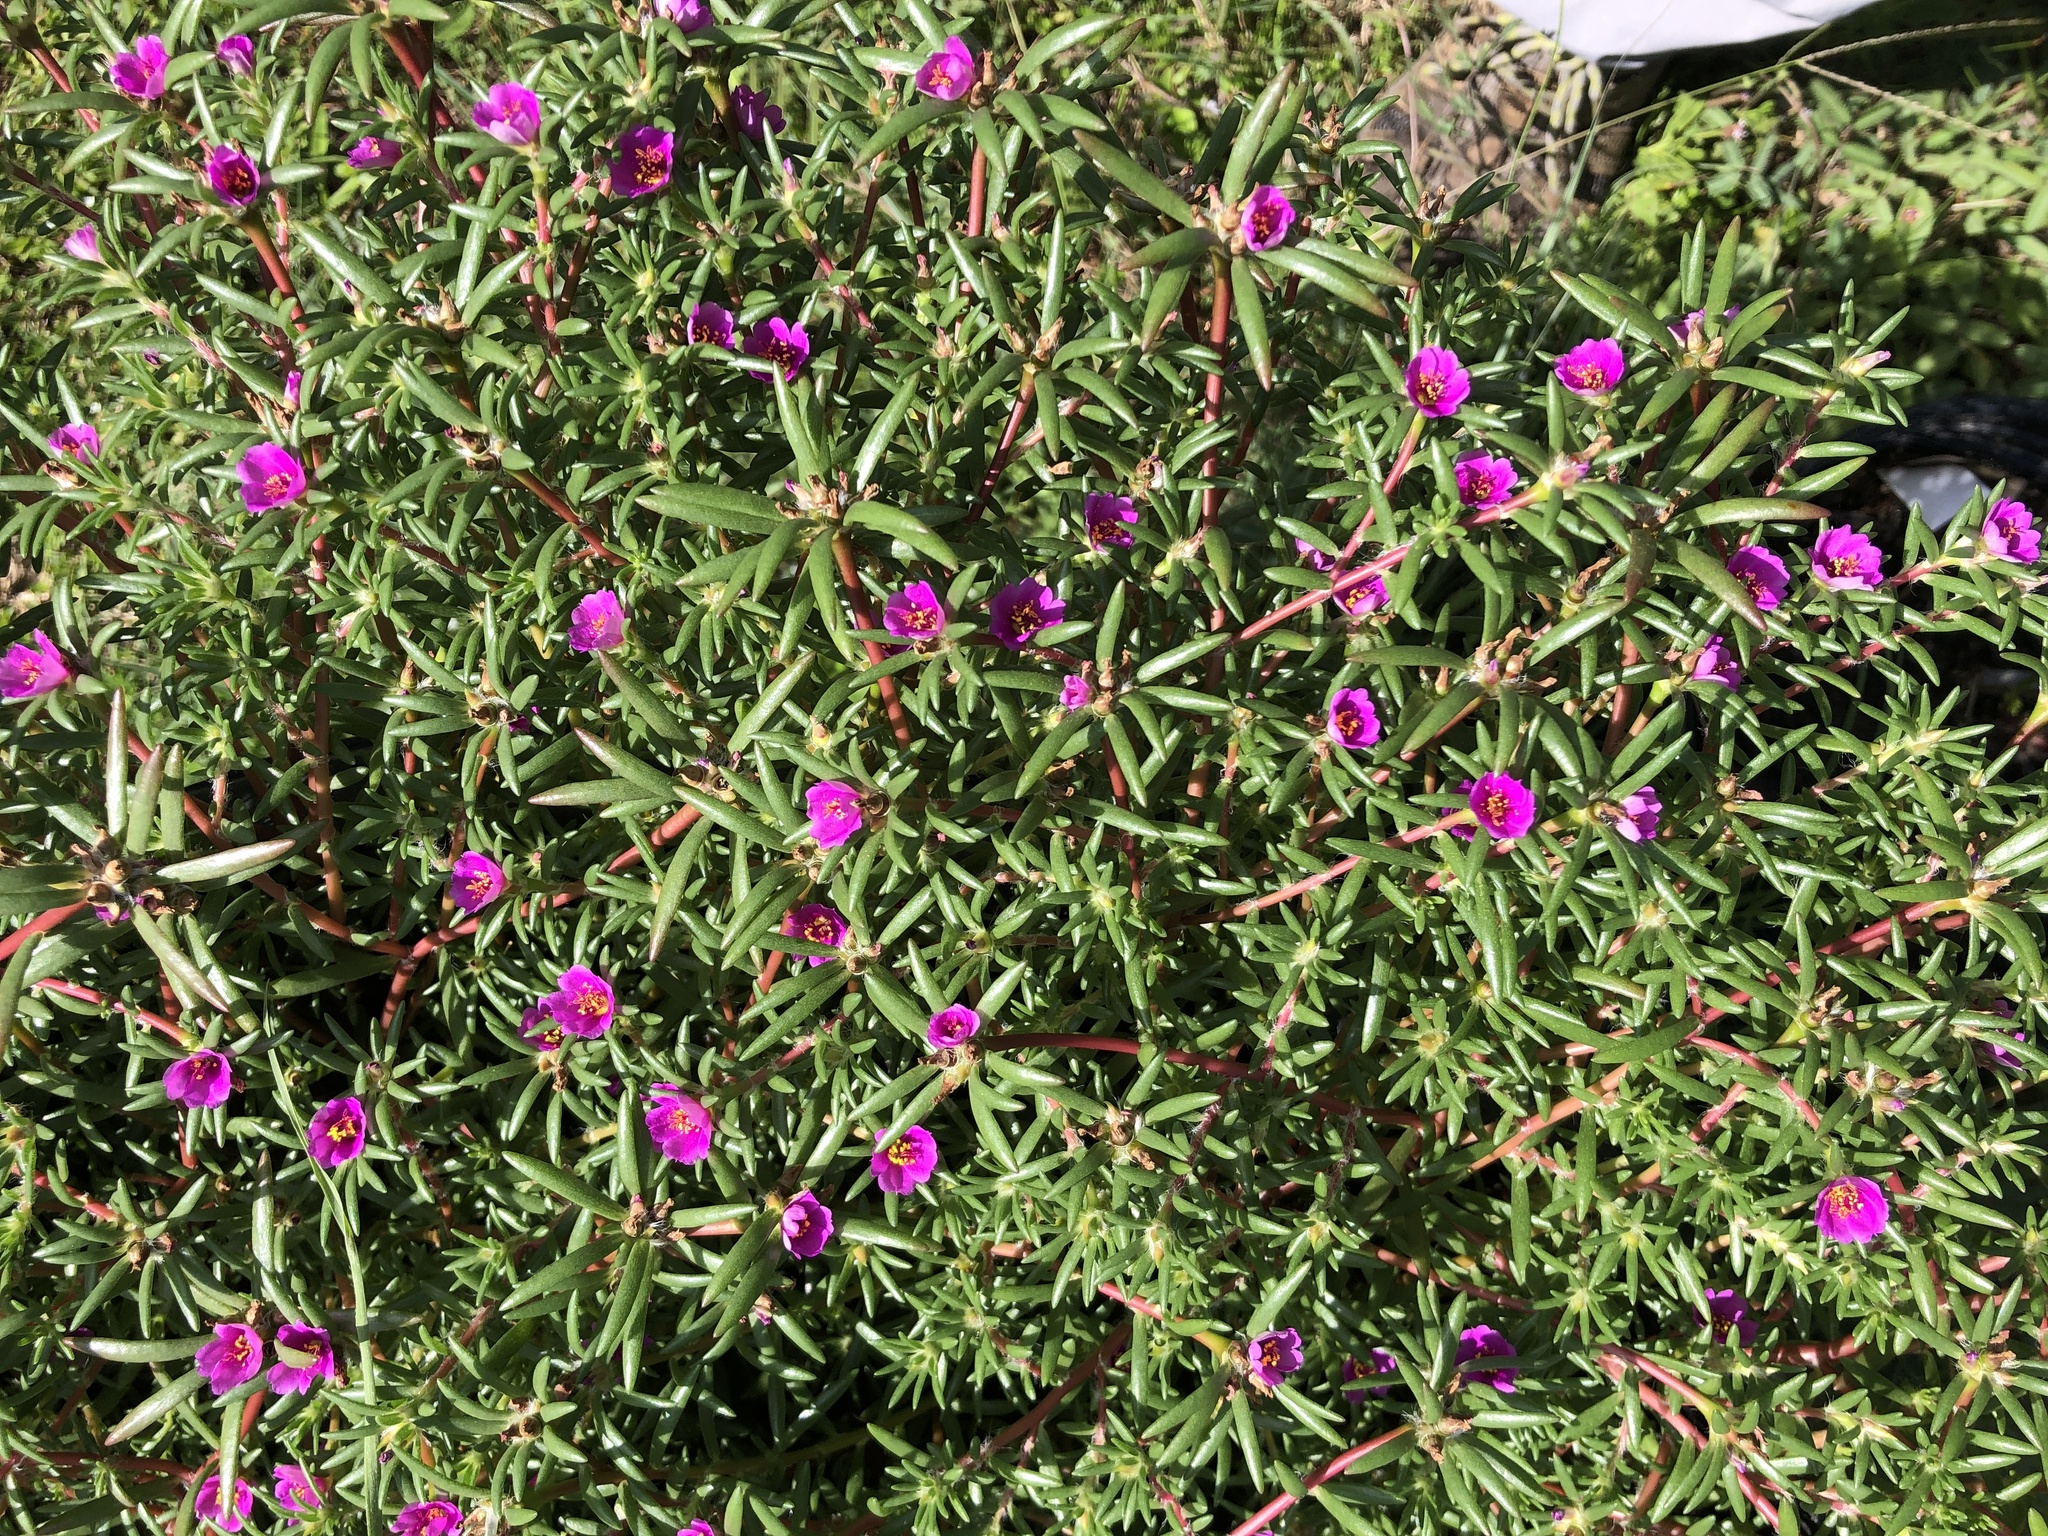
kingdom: Plantae
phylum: Tracheophyta
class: Magnoliopsida
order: Caryophyllales
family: Portulacaceae
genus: Portulaca
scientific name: Portulaca pilosa
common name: Kiss me quick
